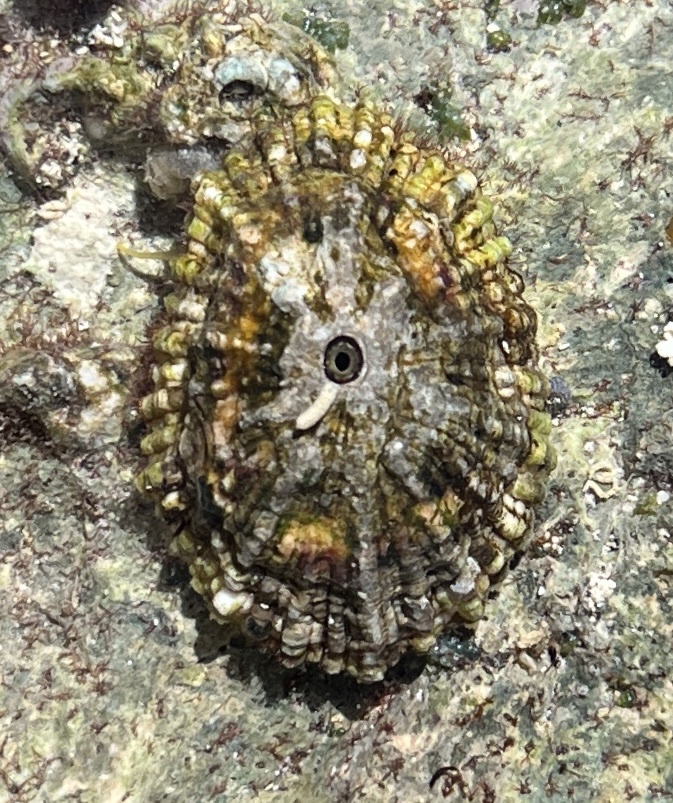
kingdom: Animalia
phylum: Mollusca
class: Gastropoda
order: Lepetellida
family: Fissurellidae
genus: Fissurella
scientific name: Fissurella barbadensis
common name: Barbados keyhole limpet
